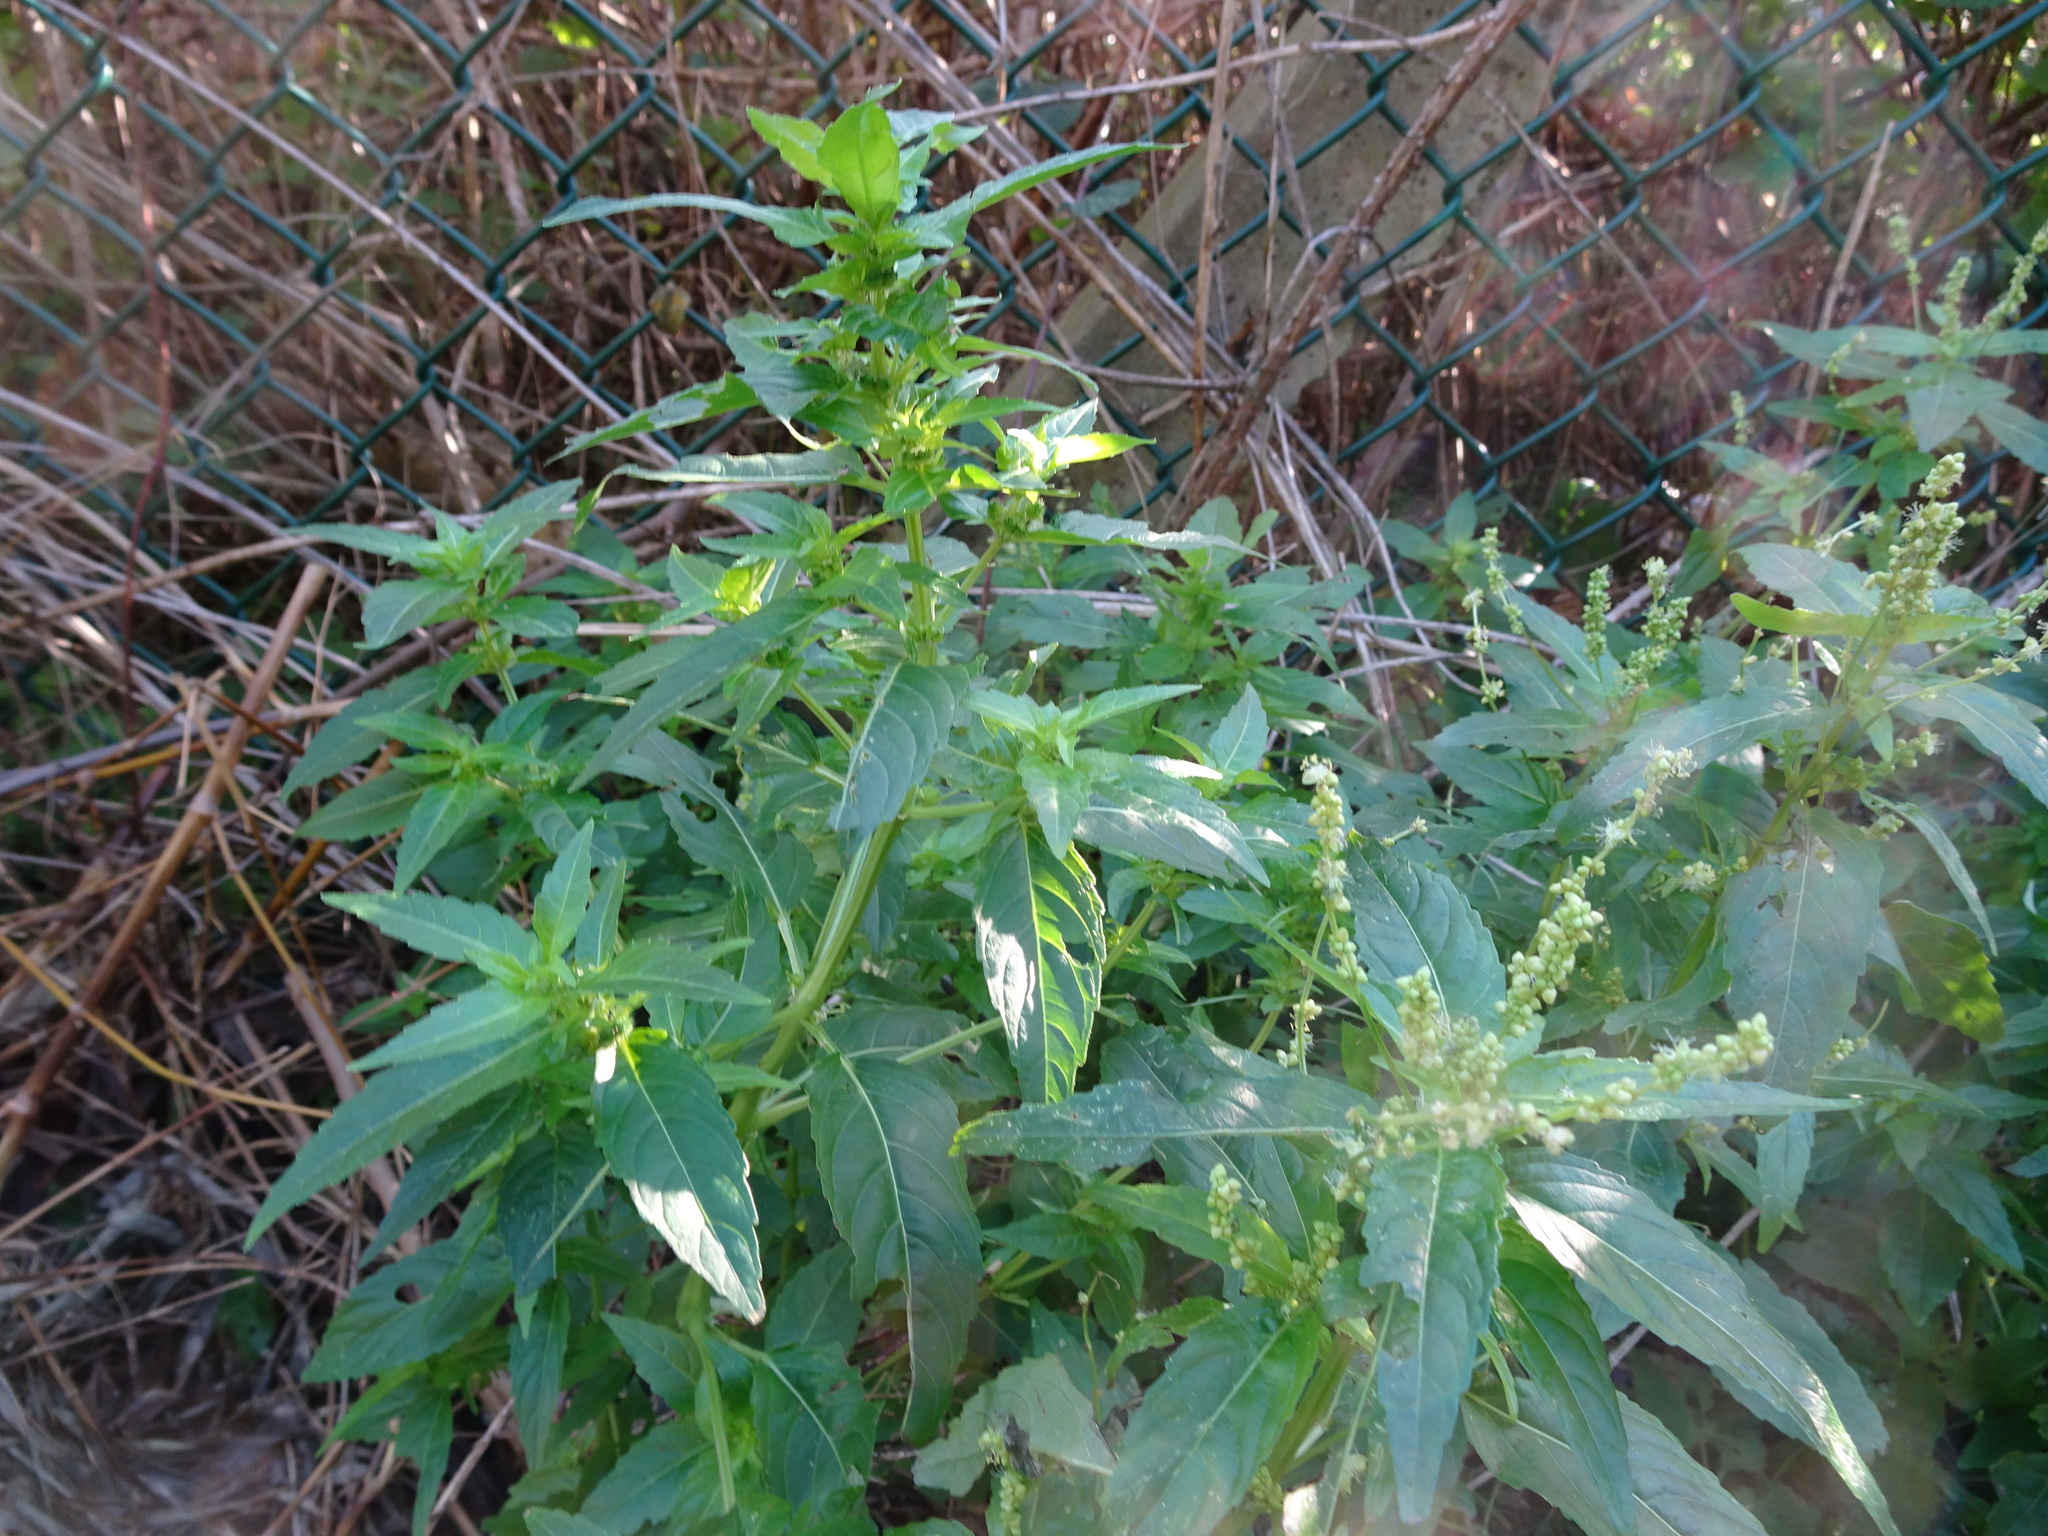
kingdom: Plantae
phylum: Tracheophyta
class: Magnoliopsida
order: Malpighiales
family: Euphorbiaceae
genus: Mercurialis
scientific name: Mercurialis annua
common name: Annual mercury
